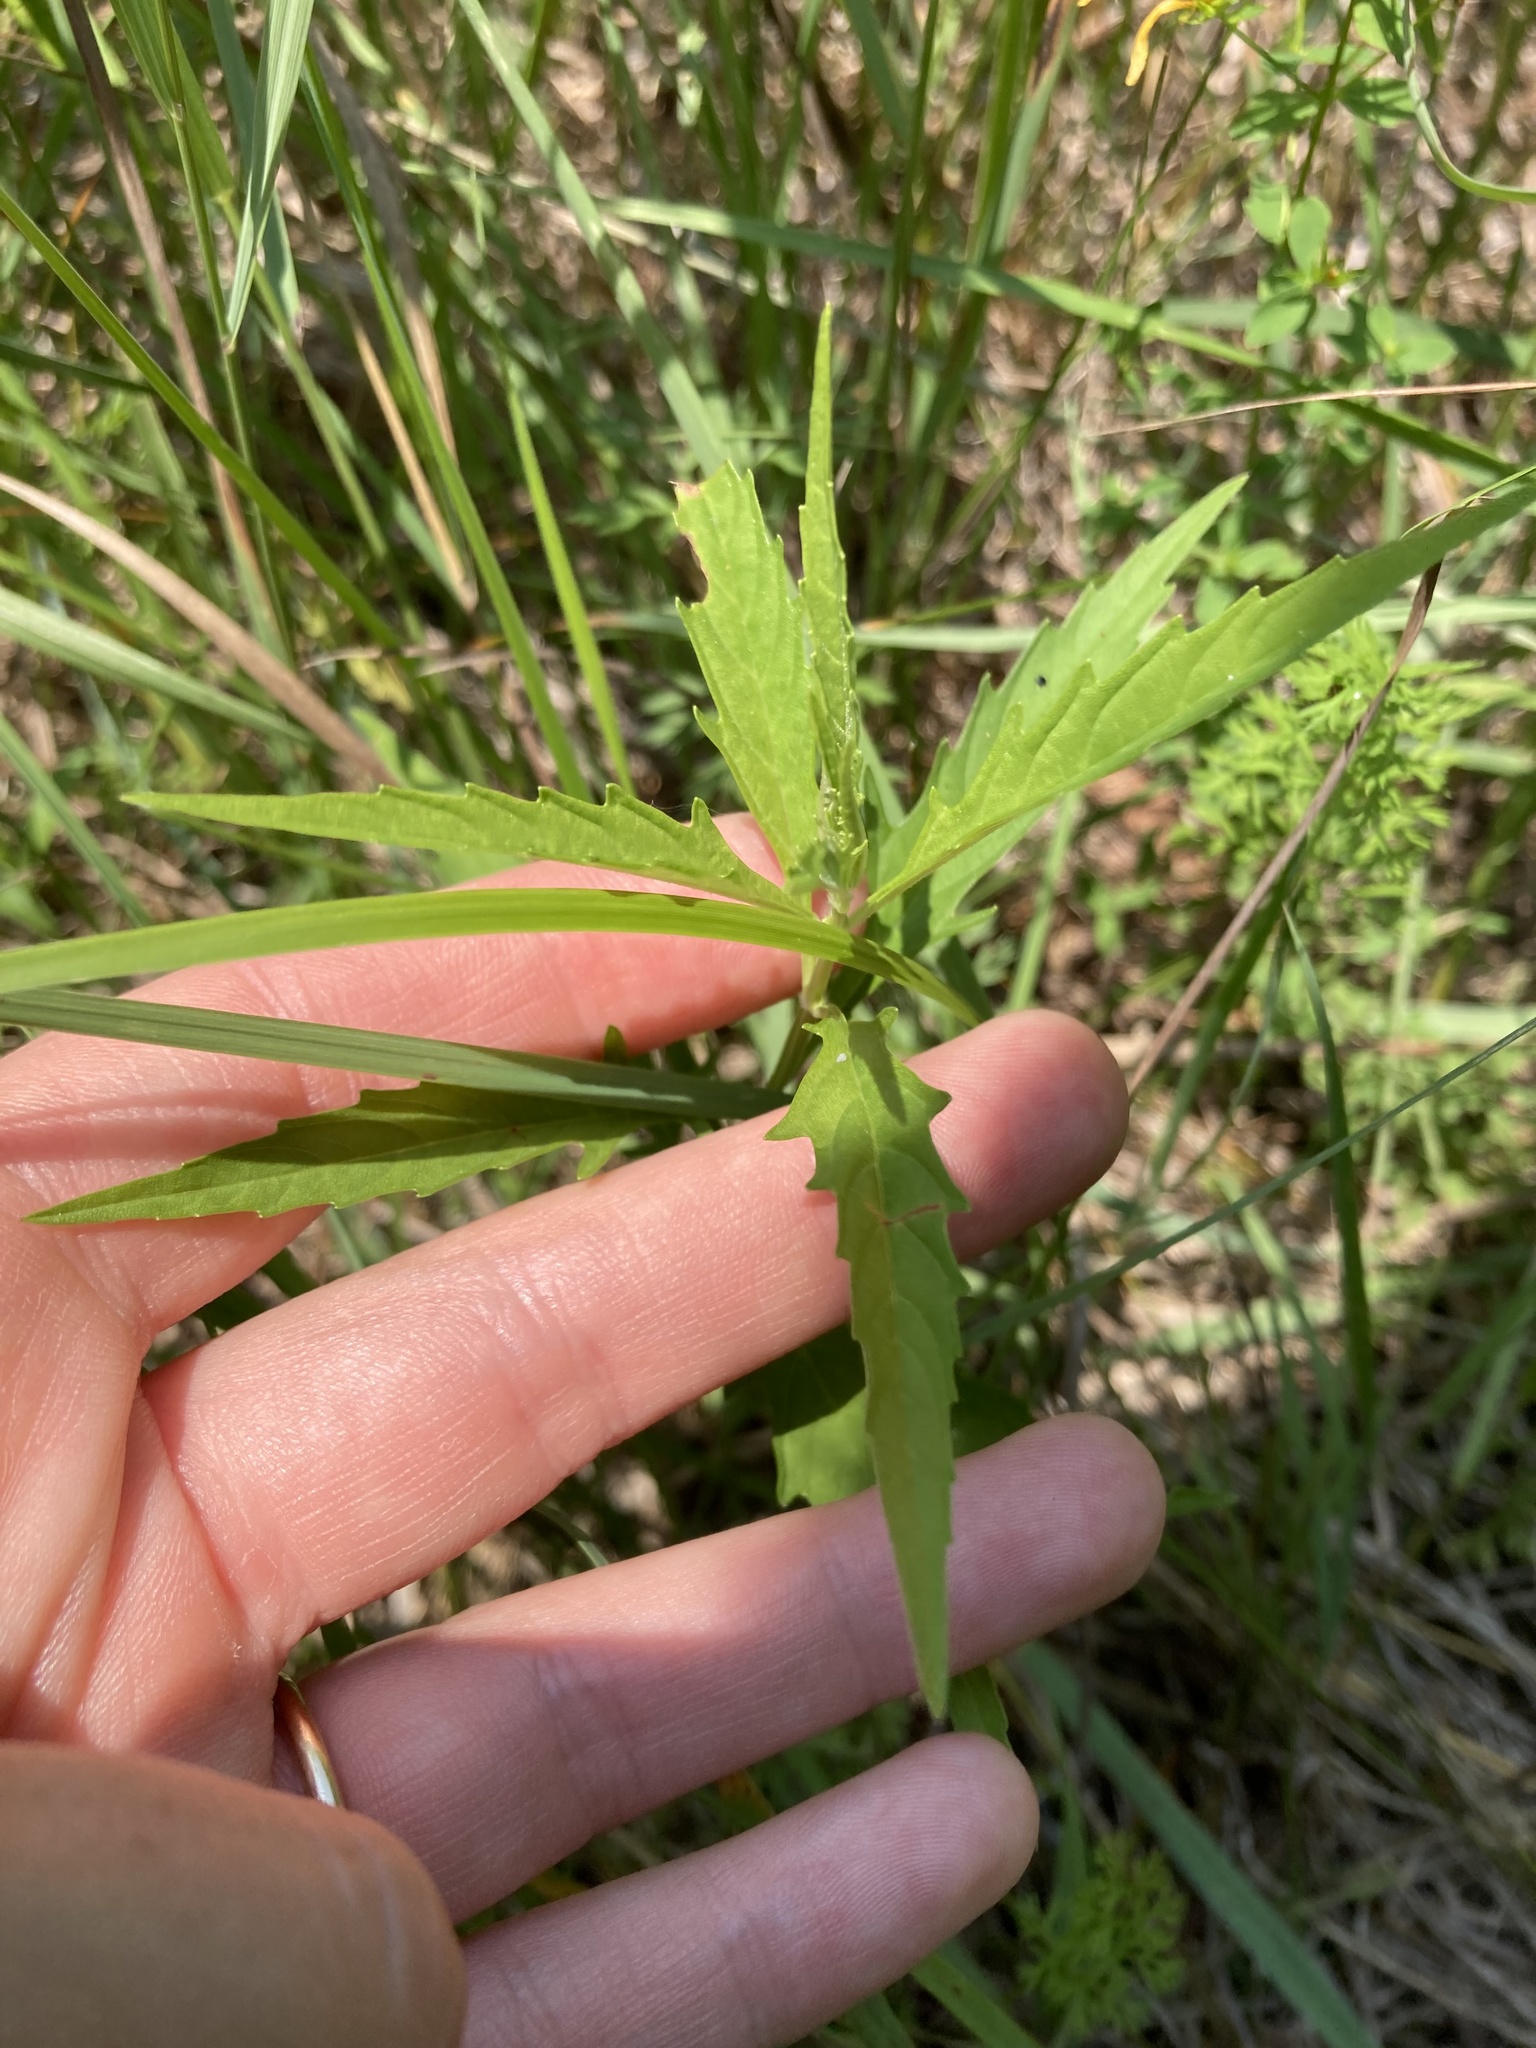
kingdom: Plantae
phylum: Tracheophyta
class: Magnoliopsida
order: Lamiales
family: Lamiaceae
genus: Lycopus
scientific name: Lycopus americanus
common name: American bugleweed
